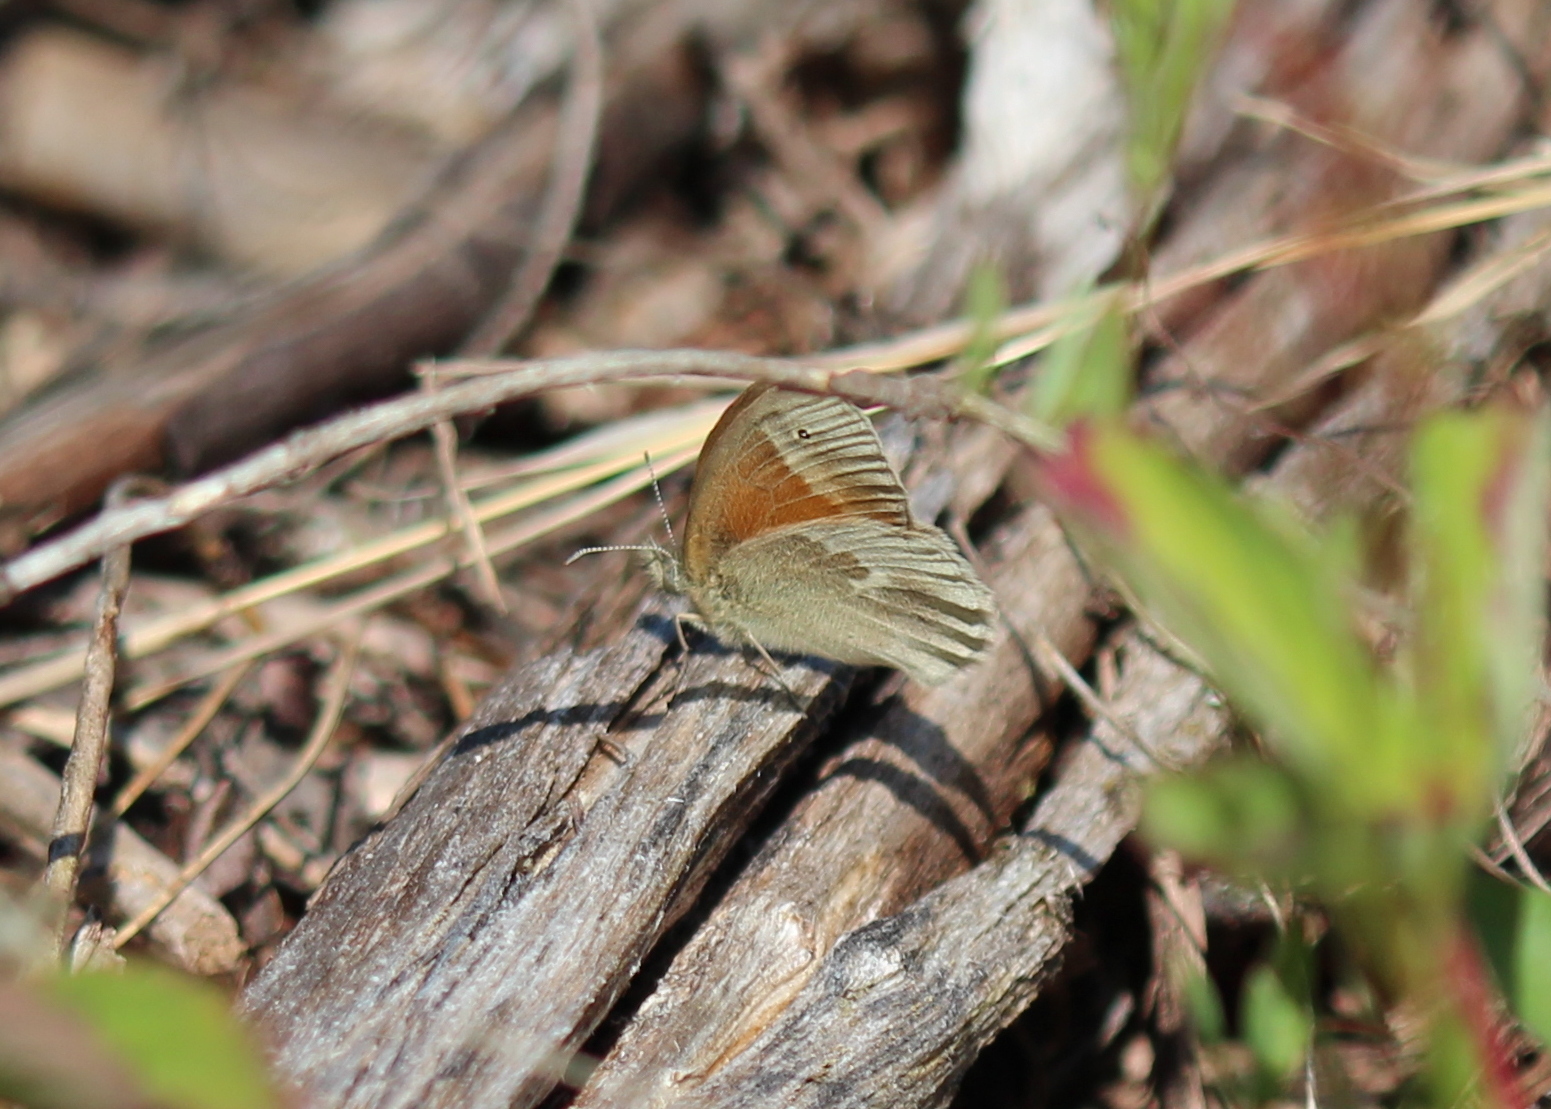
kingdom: Animalia
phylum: Arthropoda
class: Insecta
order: Lepidoptera
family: Nymphalidae
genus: Coenonympha
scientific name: Coenonympha california
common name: Common ringlet
